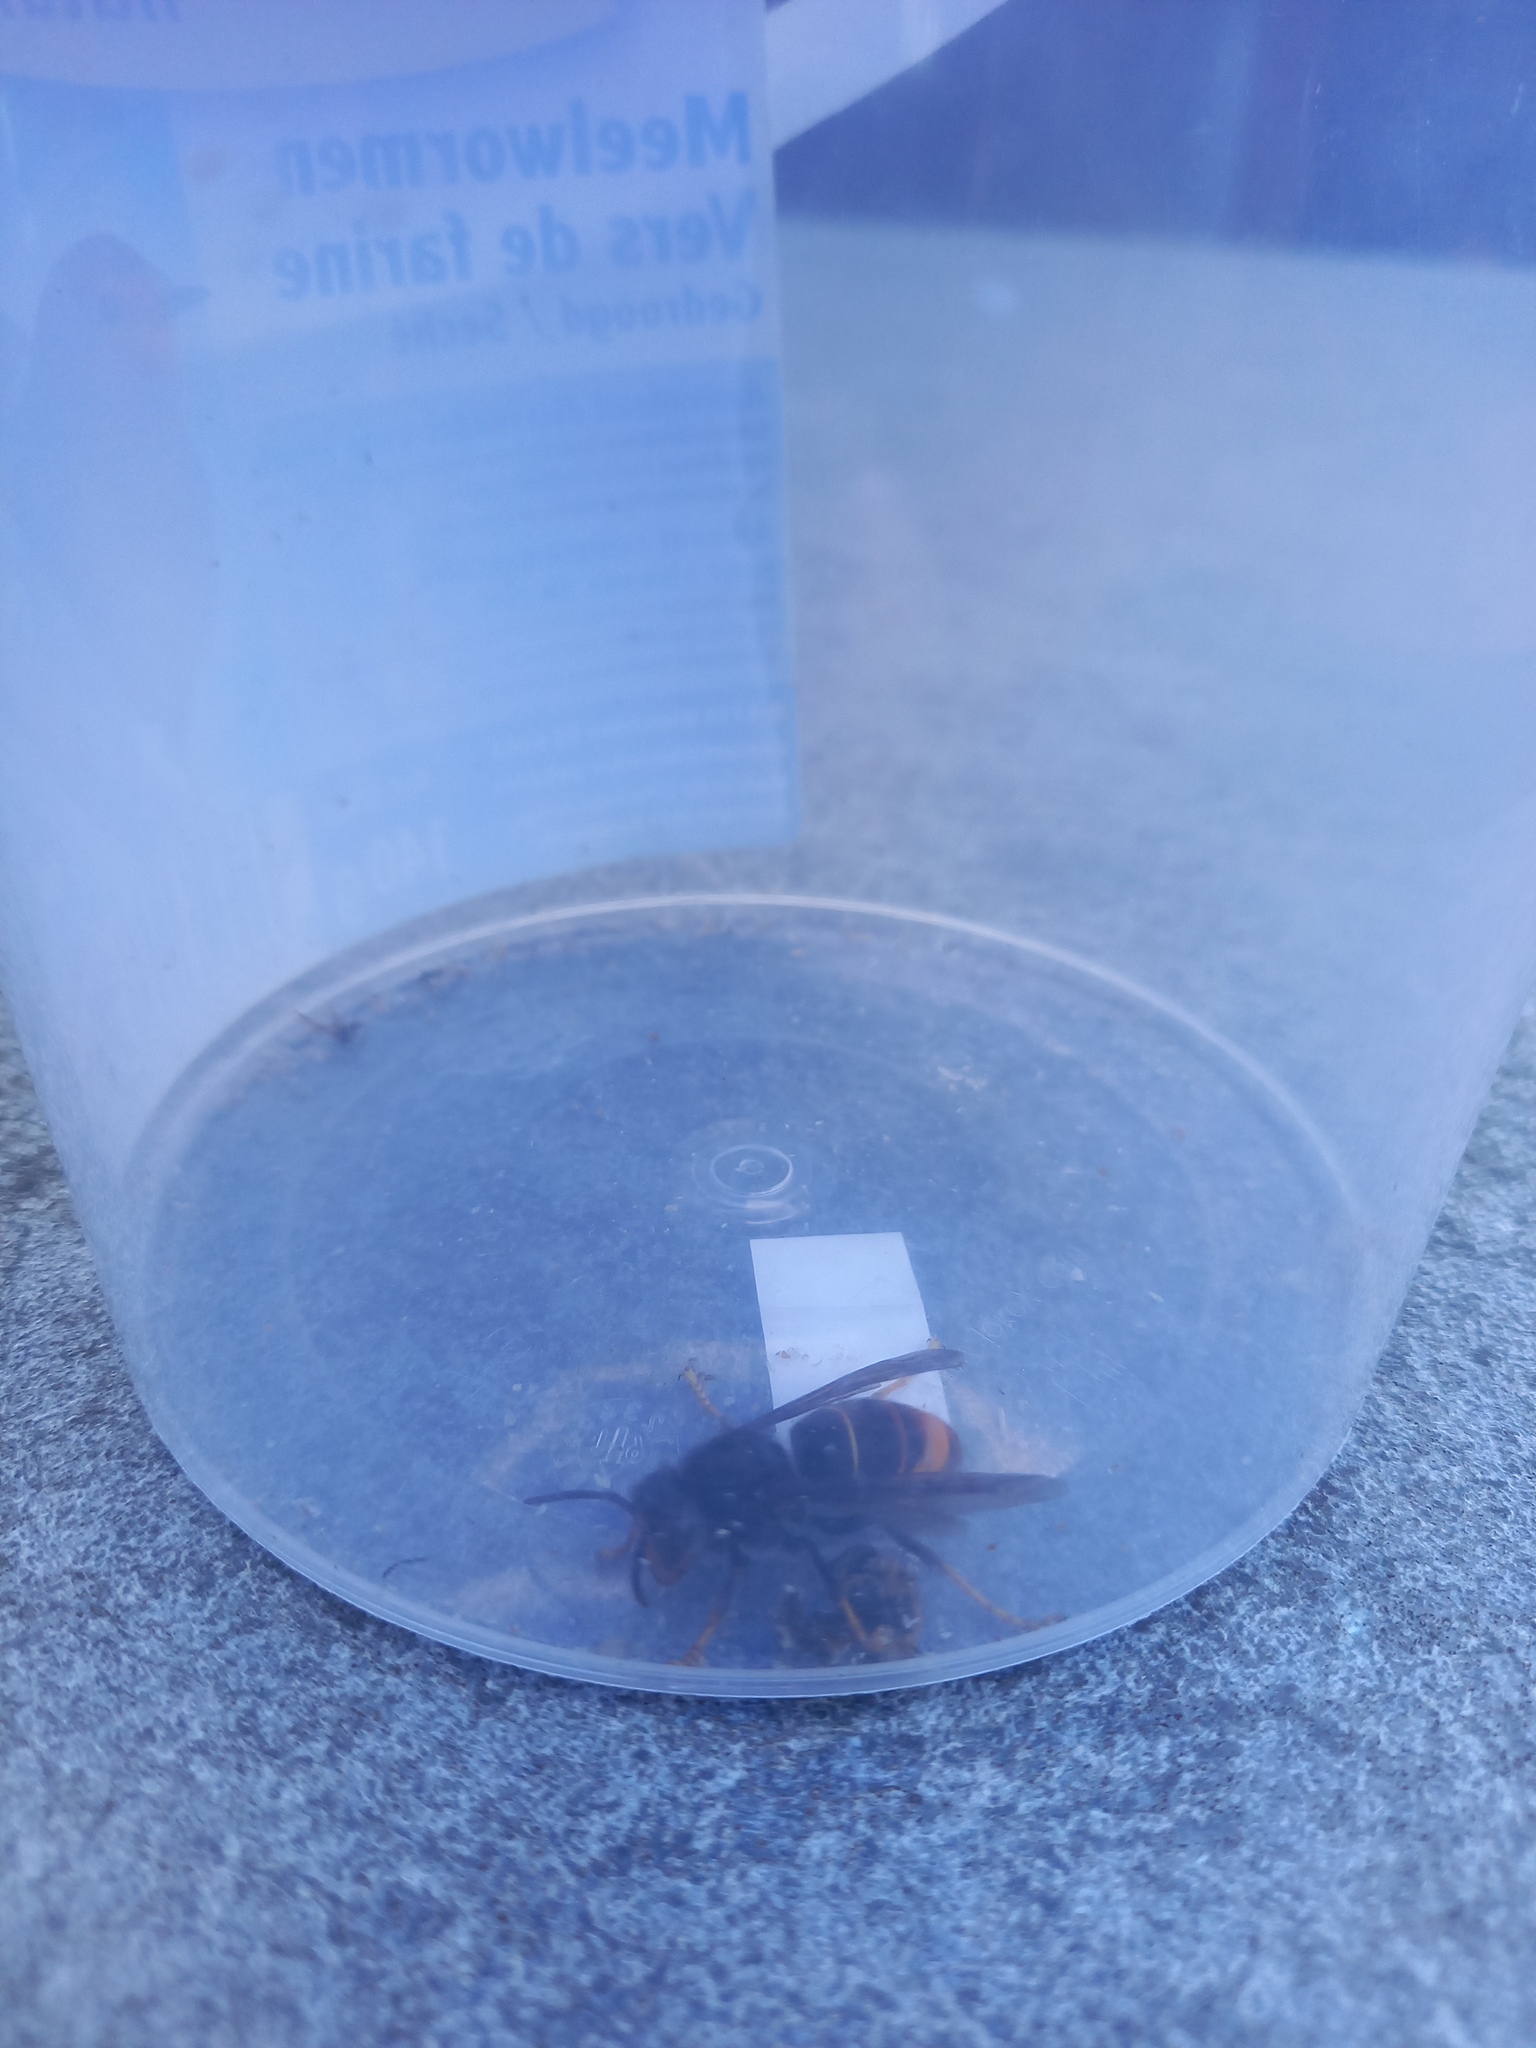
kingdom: Animalia
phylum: Arthropoda
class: Insecta
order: Hymenoptera
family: Vespidae
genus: Vespa
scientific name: Vespa velutina
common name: Asian hornet
